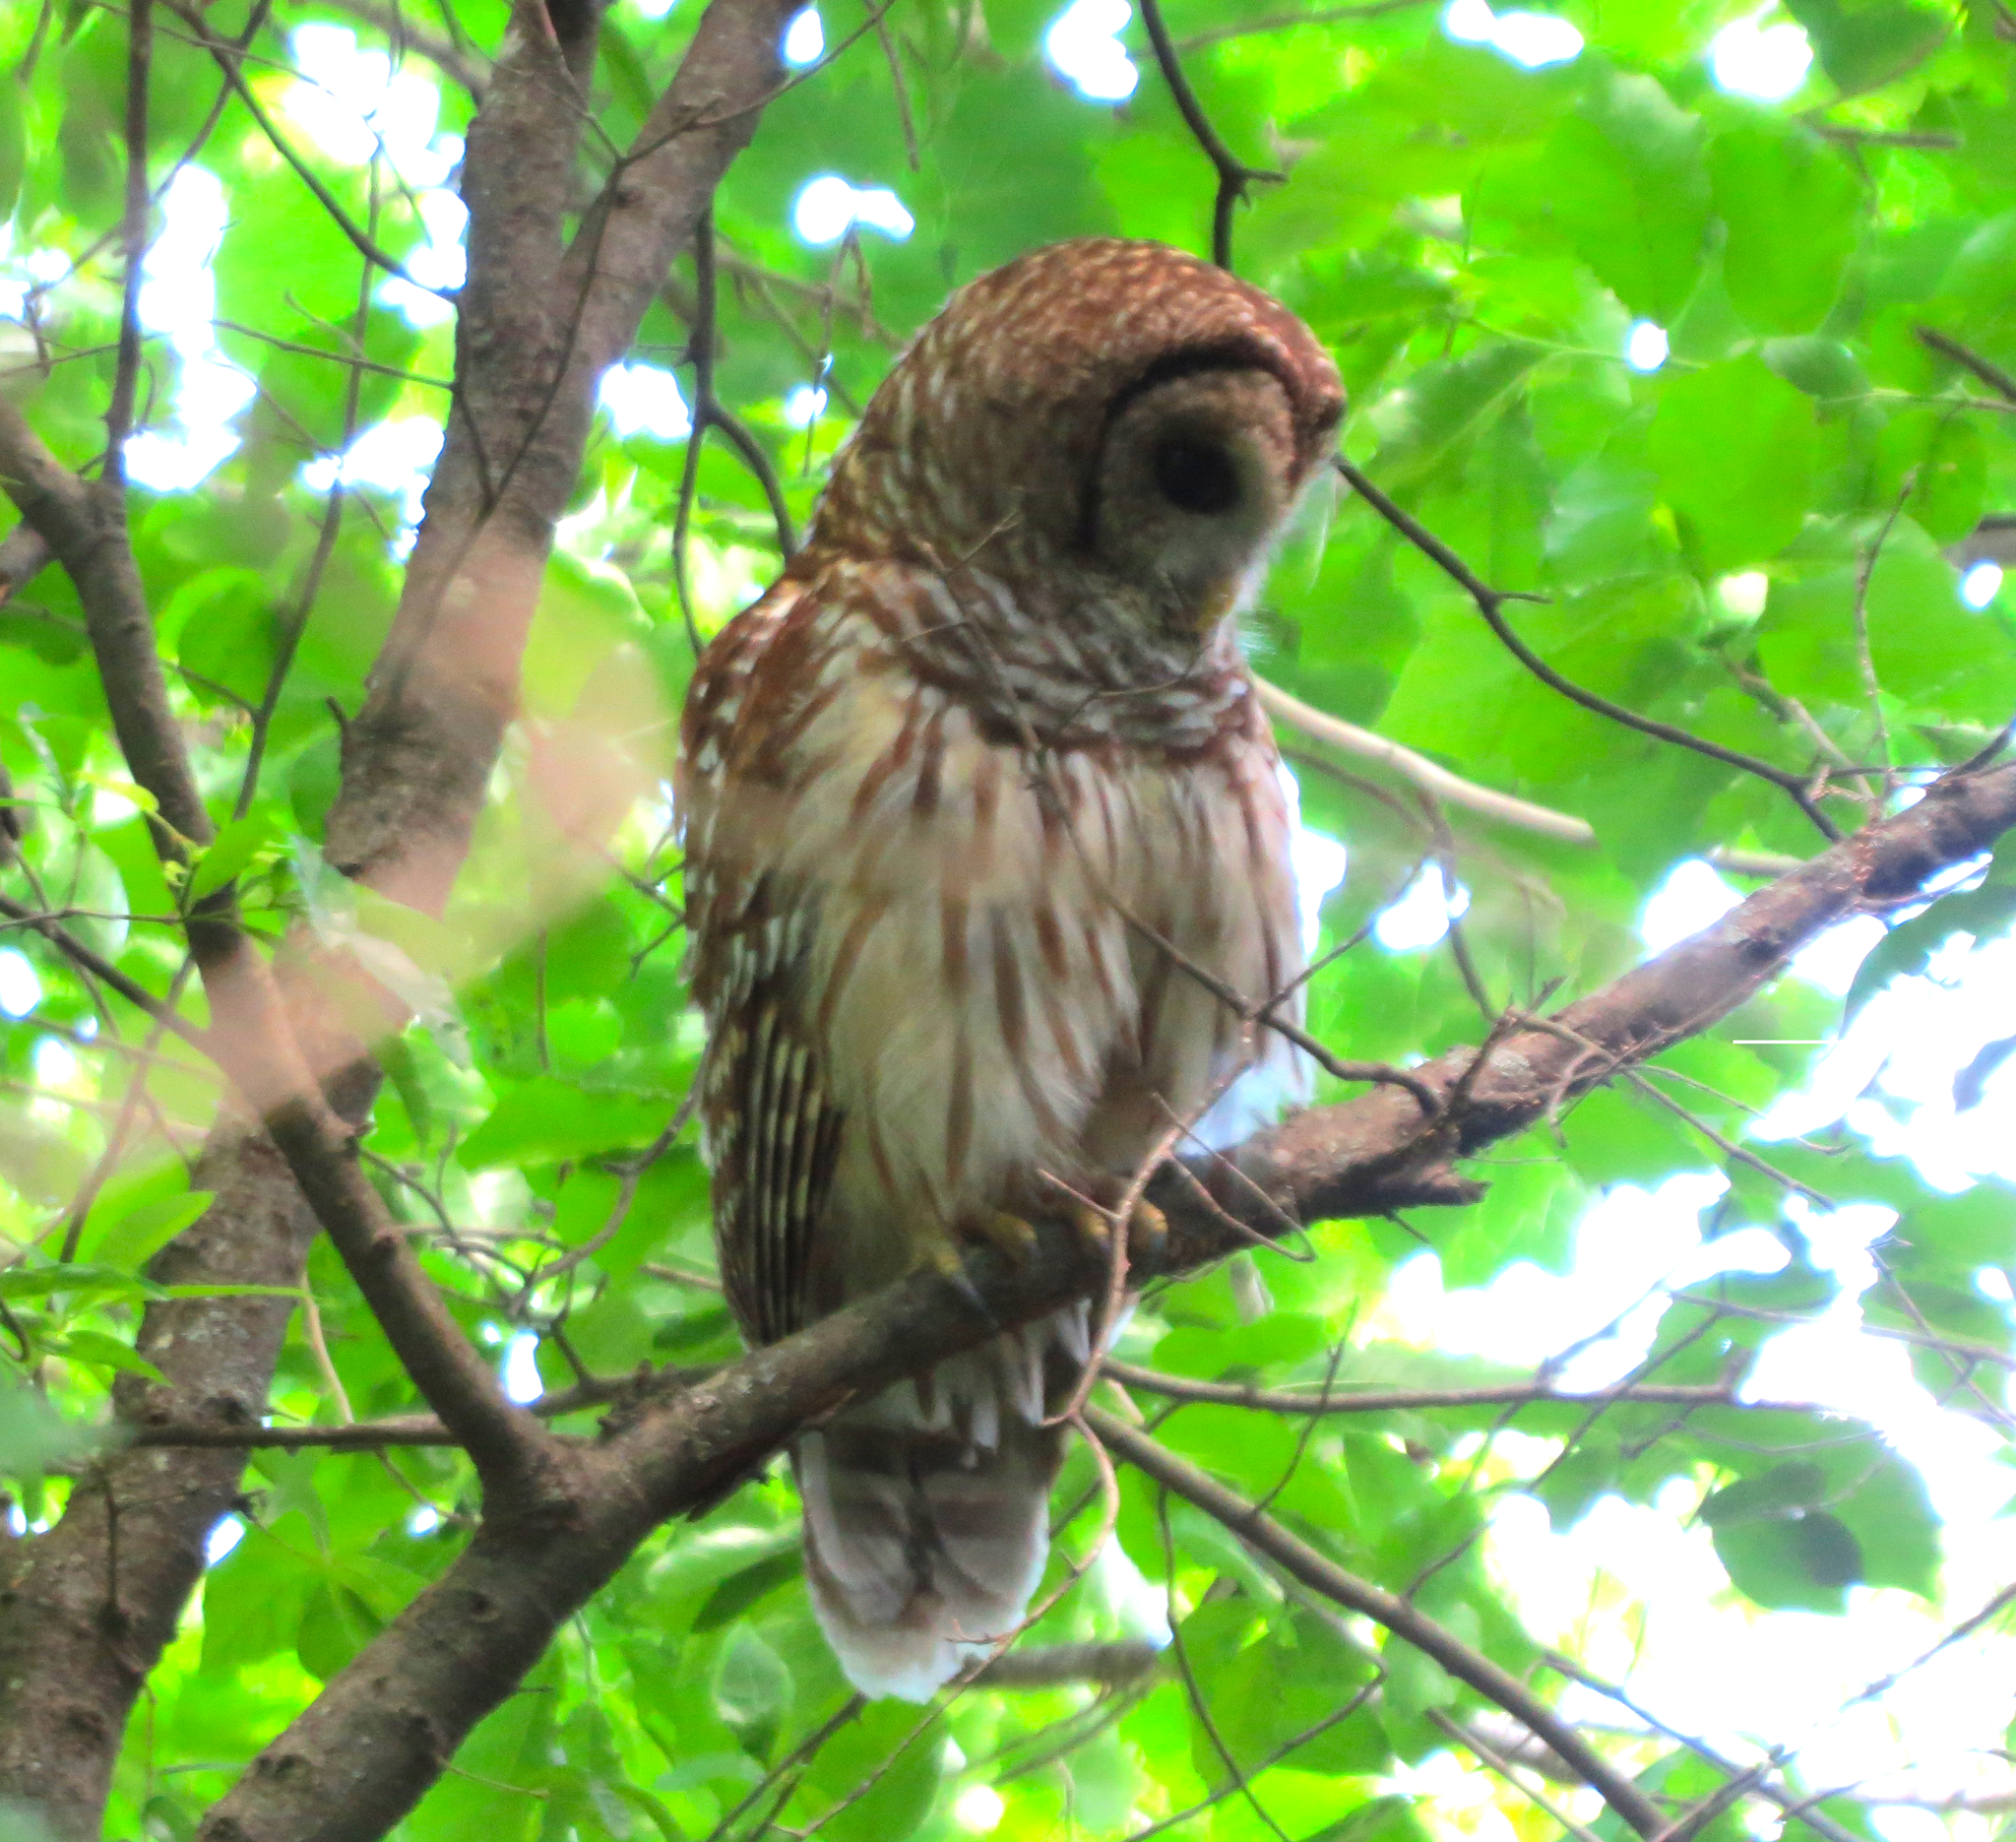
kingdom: Animalia
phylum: Chordata
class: Aves
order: Strigiformes
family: Strigidae
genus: Strix
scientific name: Strix varia
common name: Barred owl
